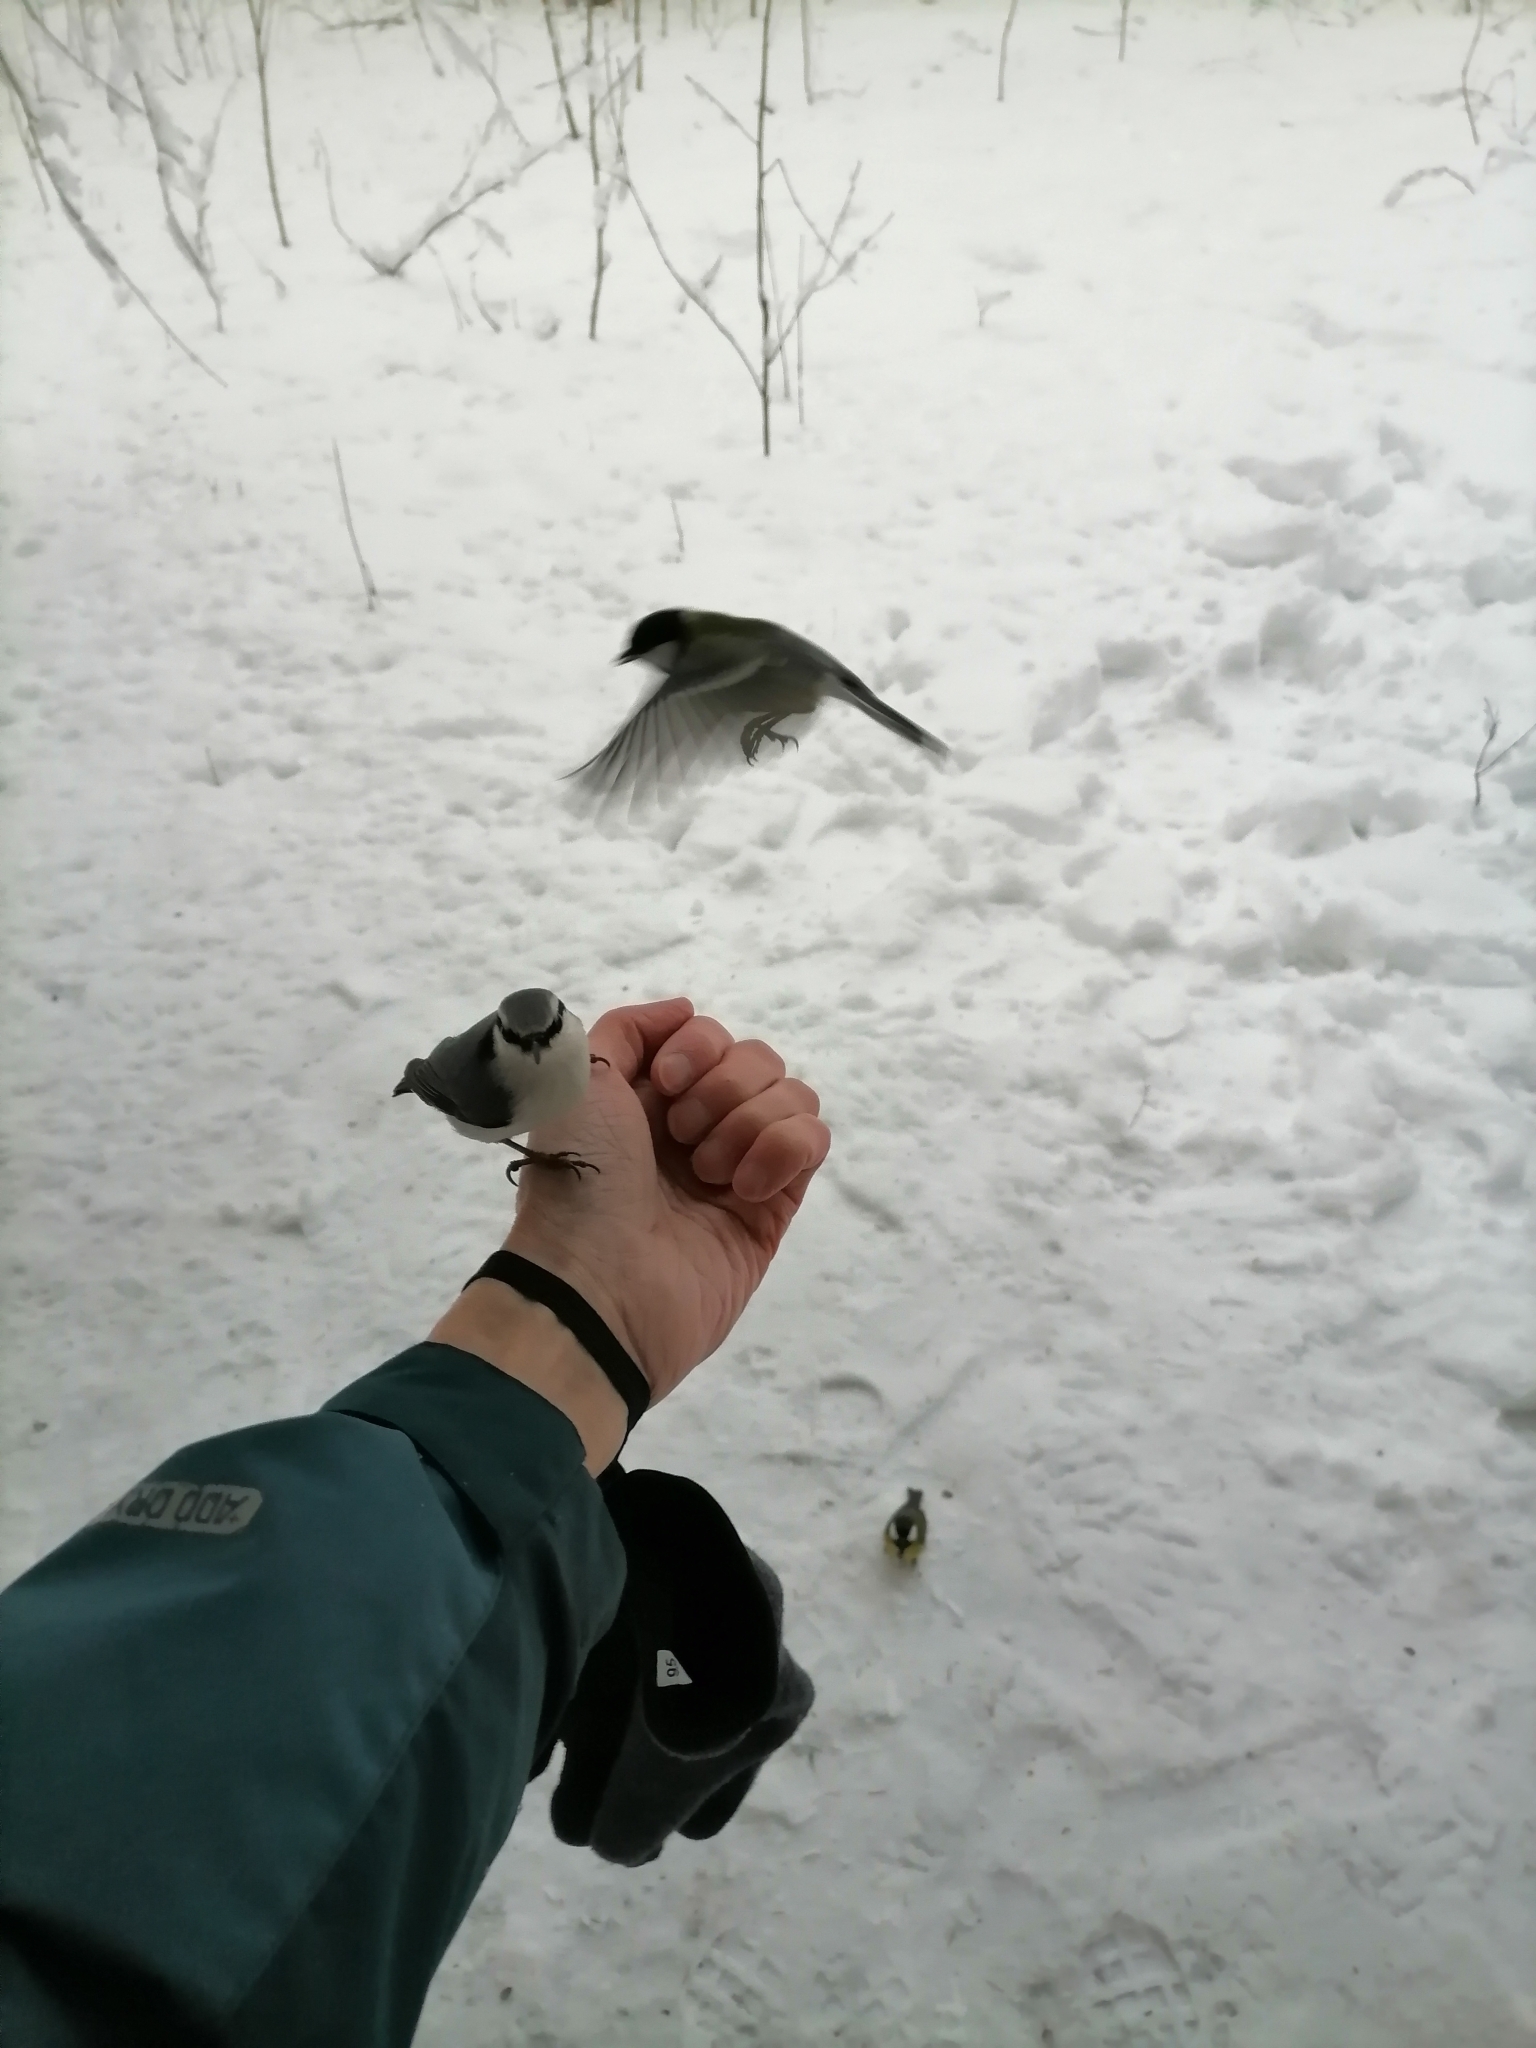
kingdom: Animalia
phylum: Chordata
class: Aves
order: Passeriformes
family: Paridae
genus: Parus
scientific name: Parus major
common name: Great tit
